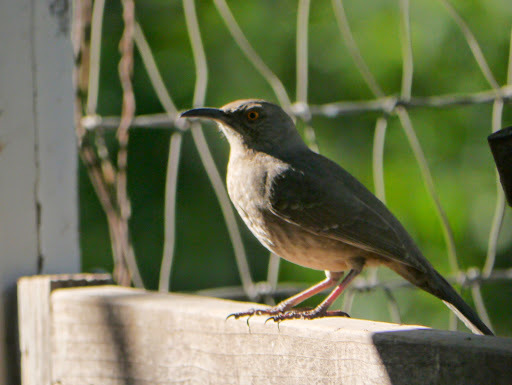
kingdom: Animalia
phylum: Chordata
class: Aves
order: Passeriformes
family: Mimidae
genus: Toxostoma
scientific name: Toxostoma curvirostre
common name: Curve-billed thrasher
